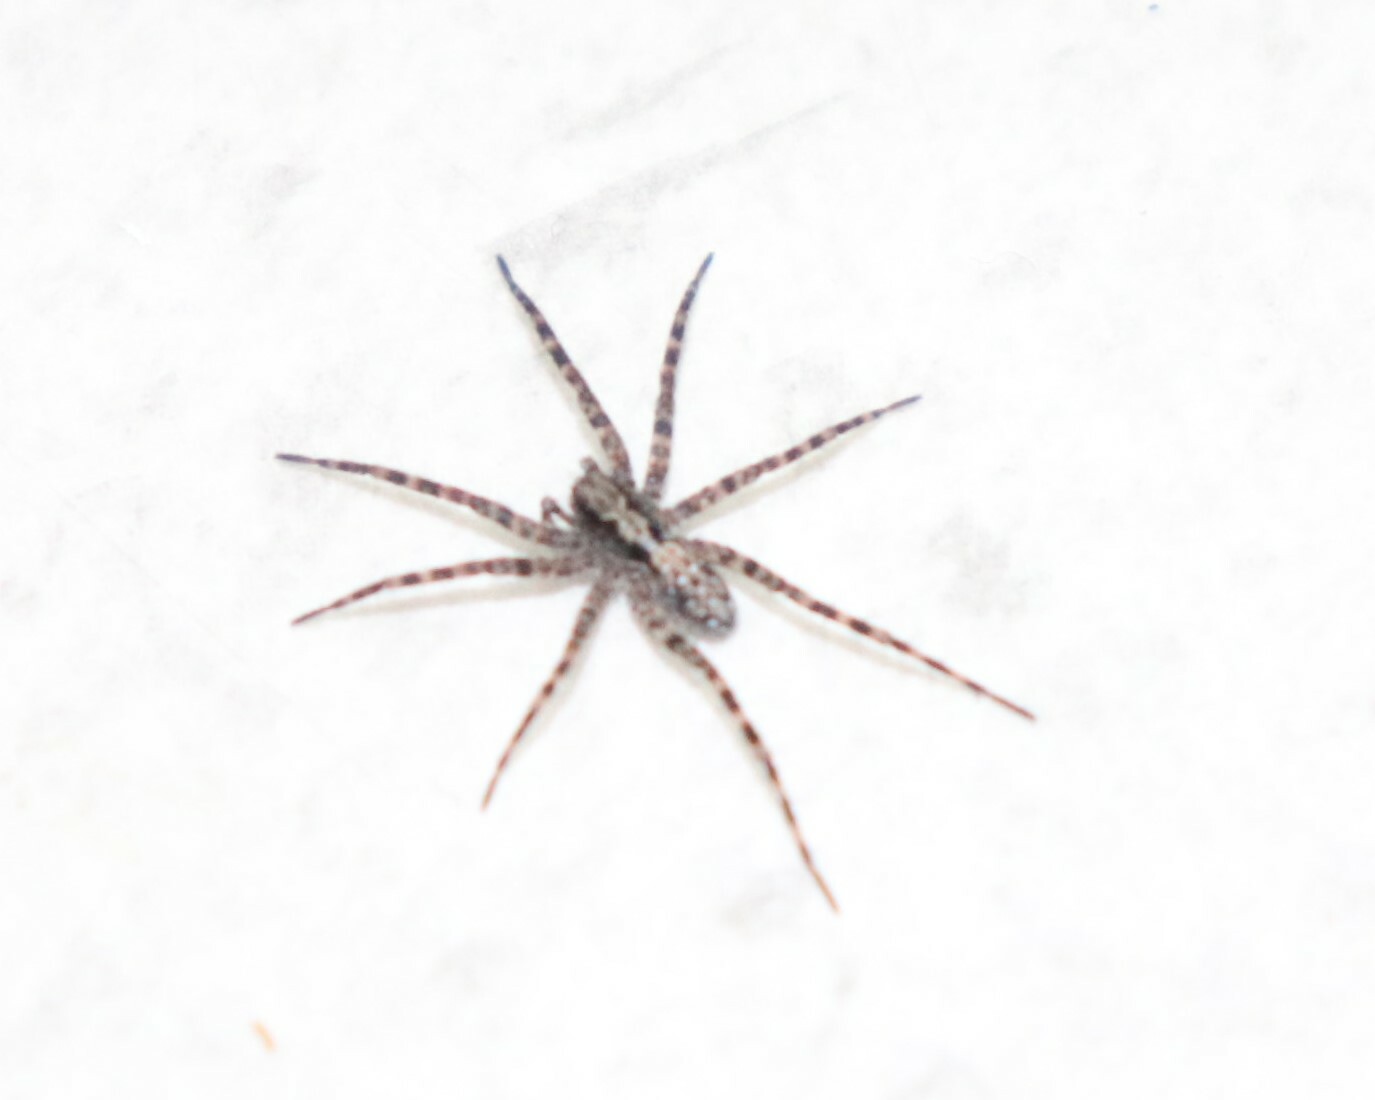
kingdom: Animalia
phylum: Arthropoda
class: Arachnida
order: Araneae
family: Lycosidae
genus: Acantholycosa
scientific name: Acantholycosa lignaria
